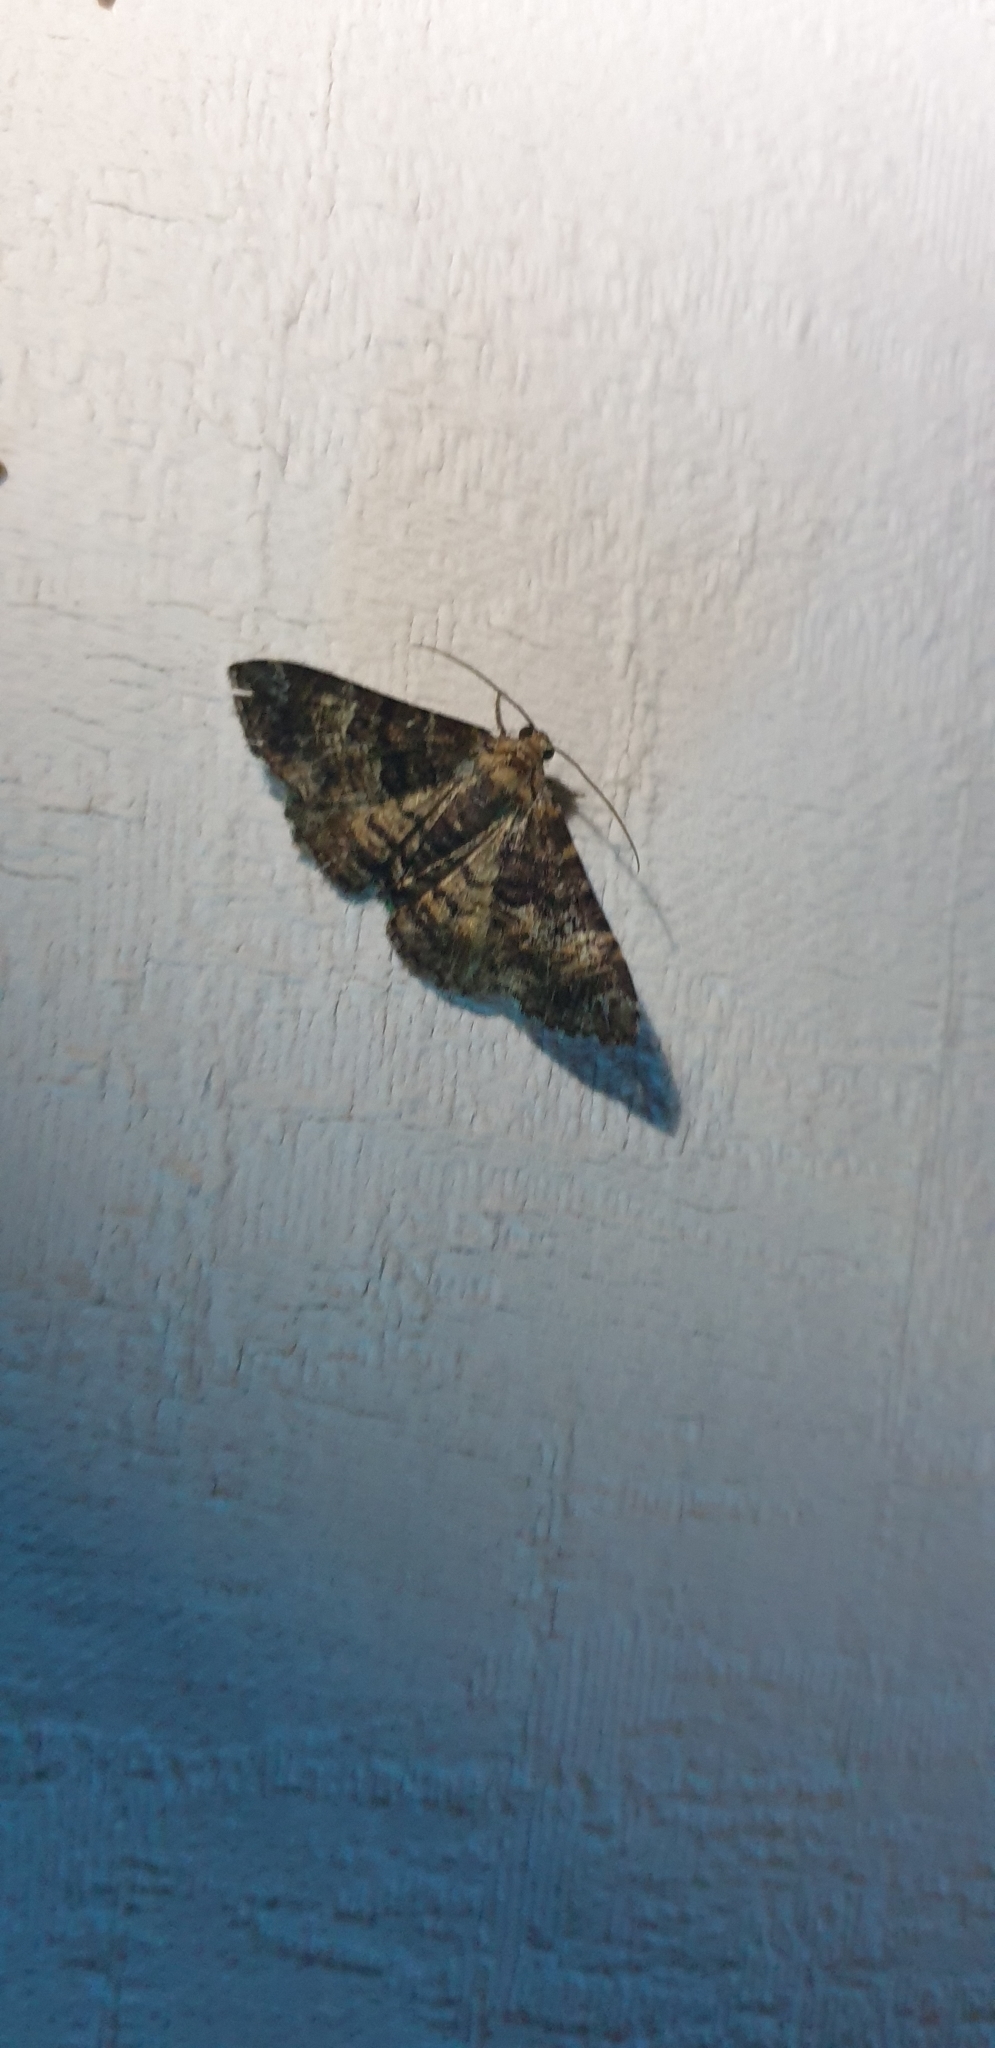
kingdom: Animalia
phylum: Arthropoda
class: Insecta
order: Lepidoptera
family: Geometridae
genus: Aporoctena
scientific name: Aporoctena scierodes
